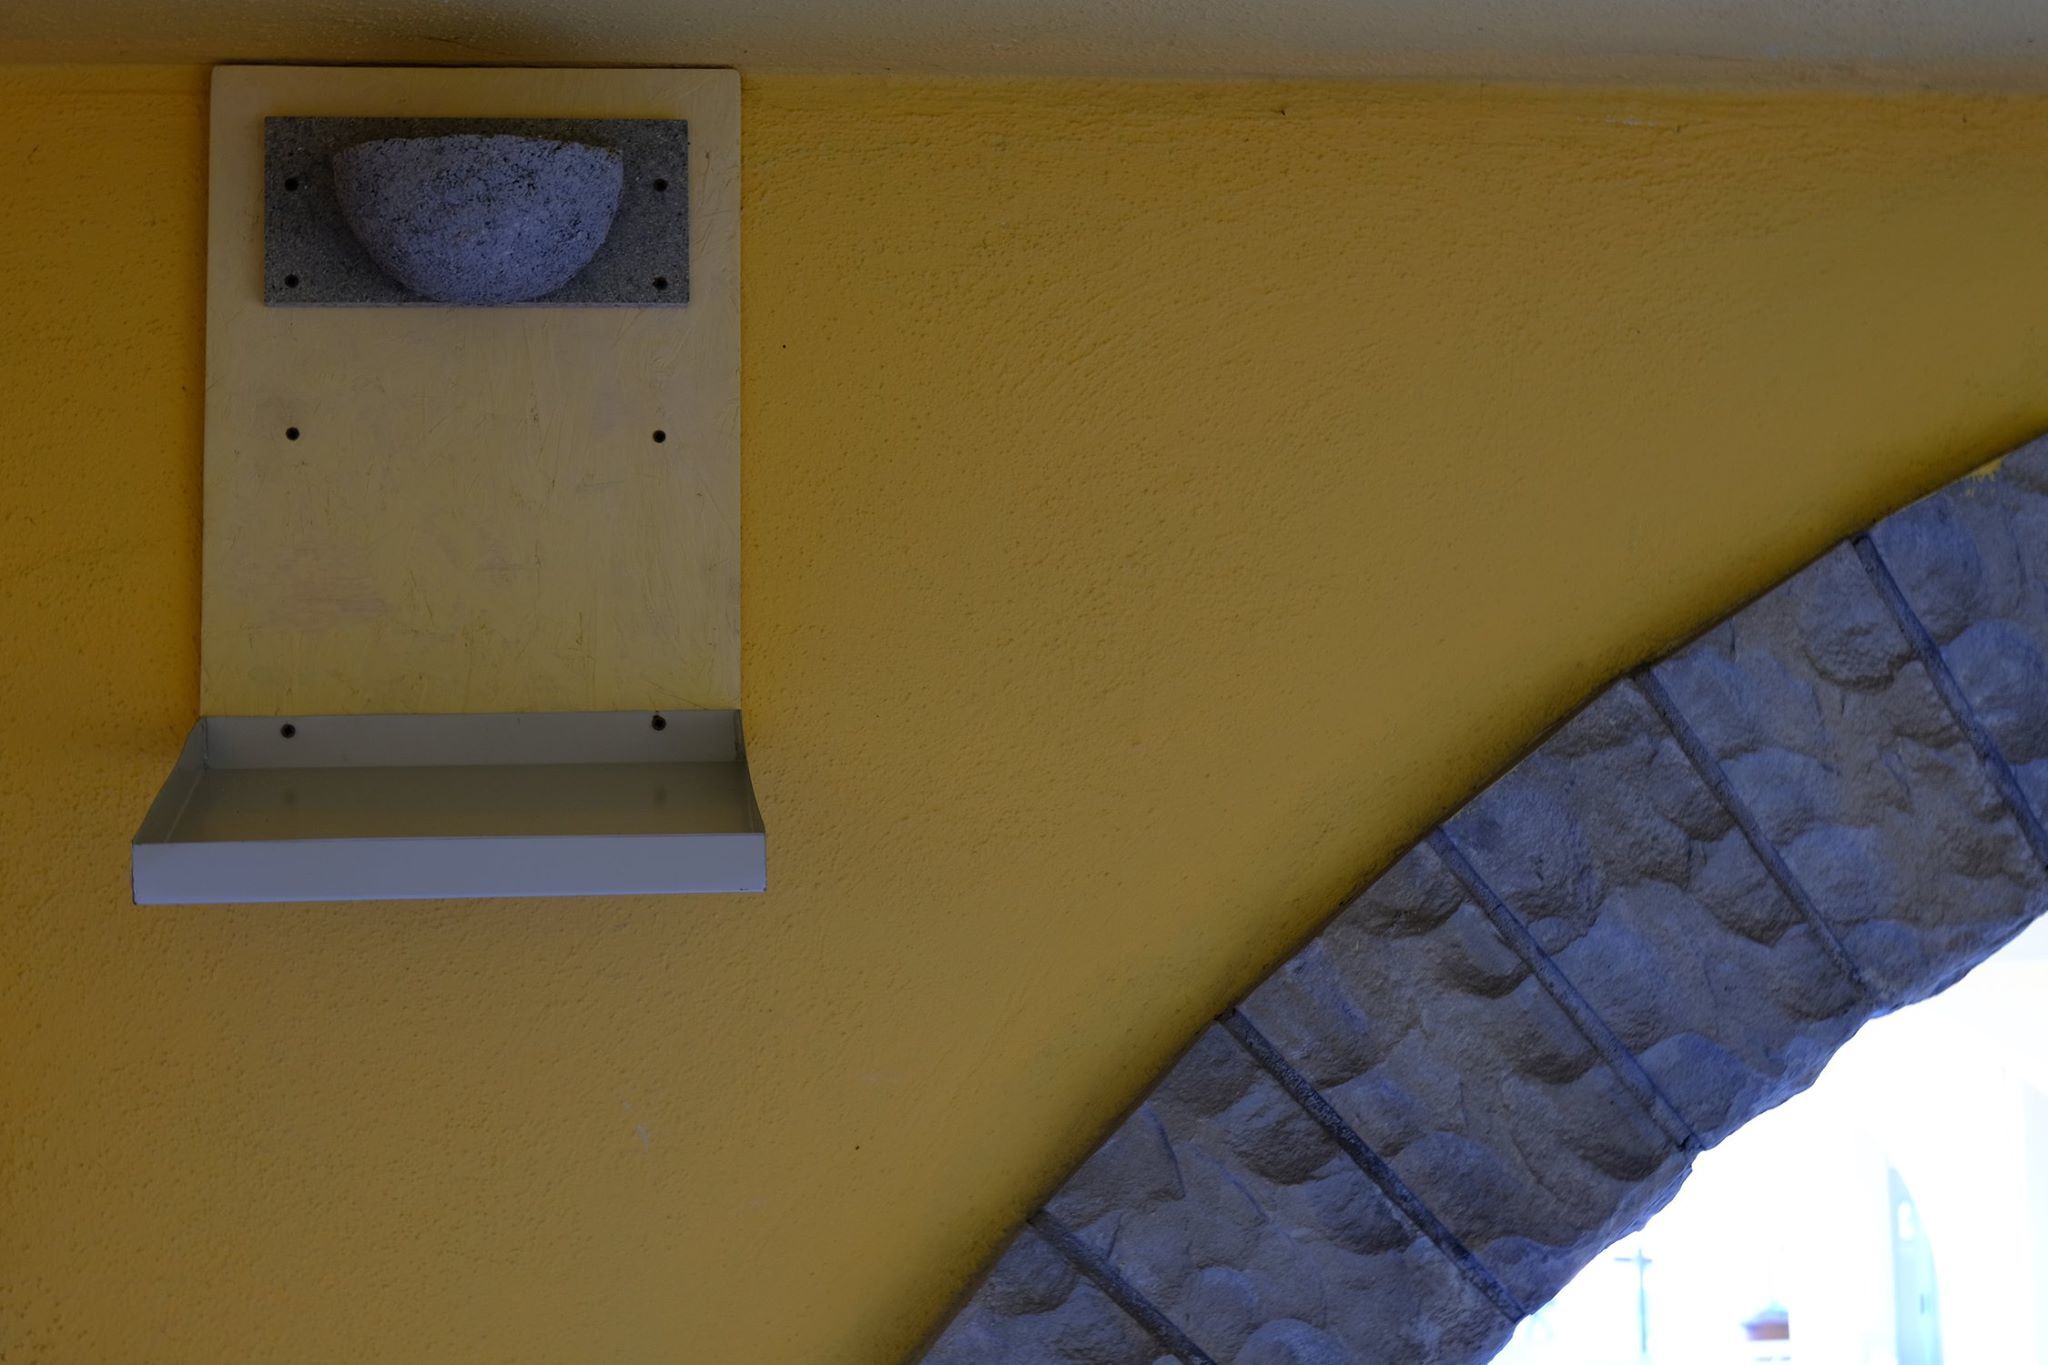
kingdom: Animalia
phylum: Chordata
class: Aves
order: Passeriformes
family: Hirundinidae
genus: Hirundo
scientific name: Hirundo rustica
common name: Barn swallow
